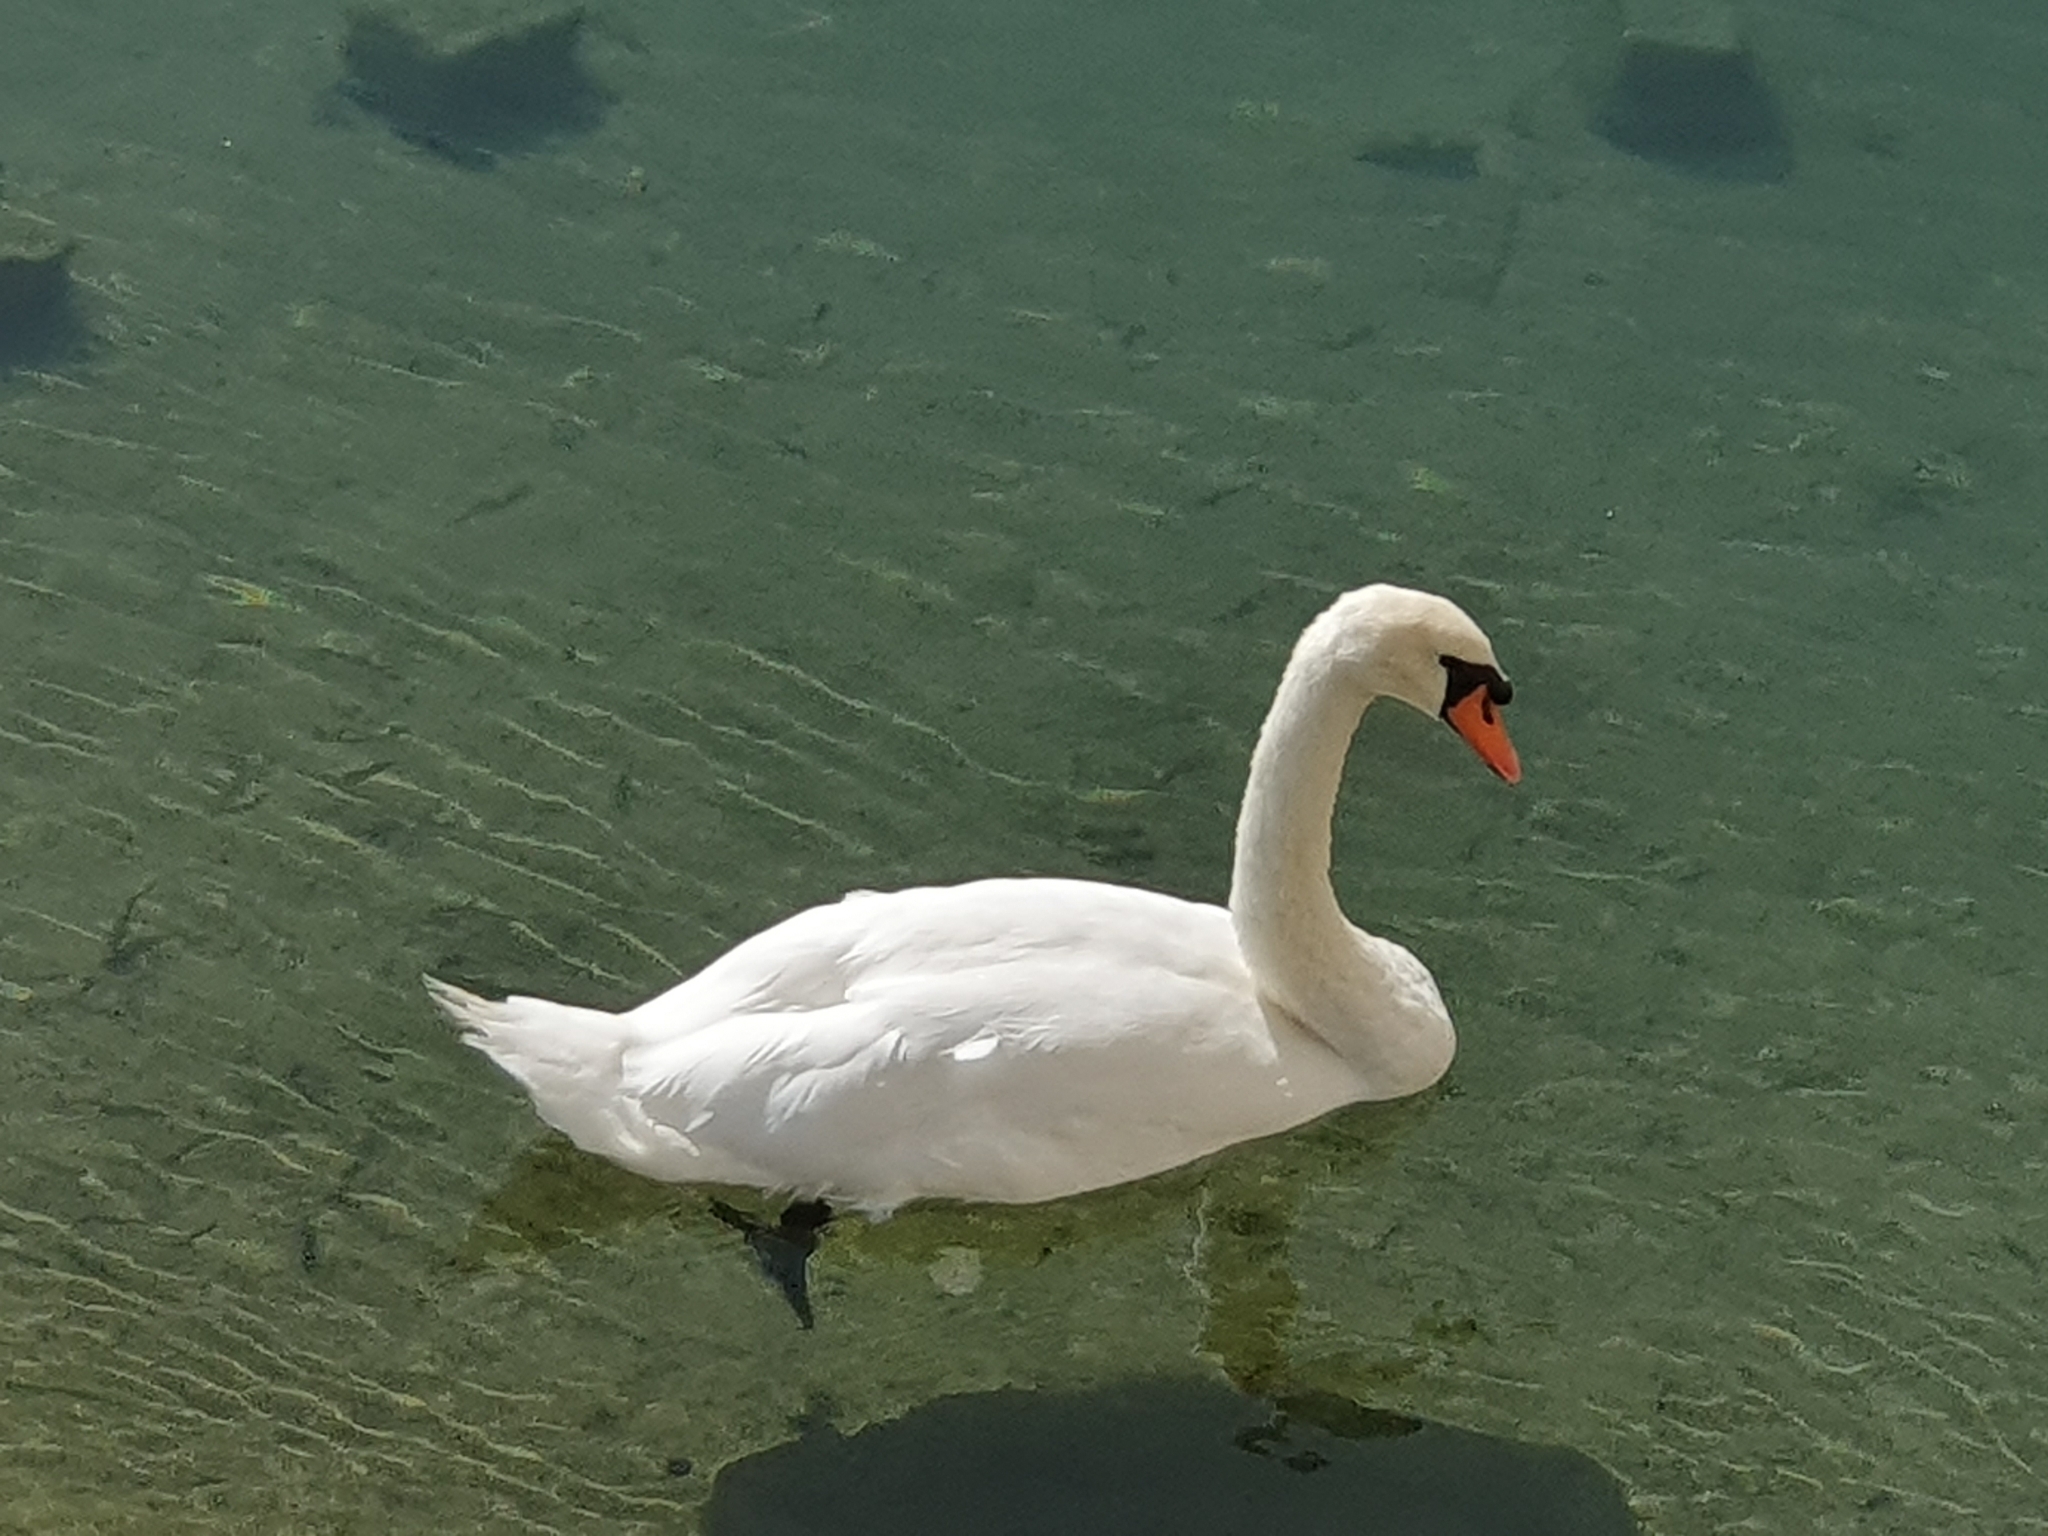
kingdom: Animalia
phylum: Chordata
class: Aves
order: Anseriformes
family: Anatidae
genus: Cygnus
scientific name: Cygnus olor
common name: Mute swan
